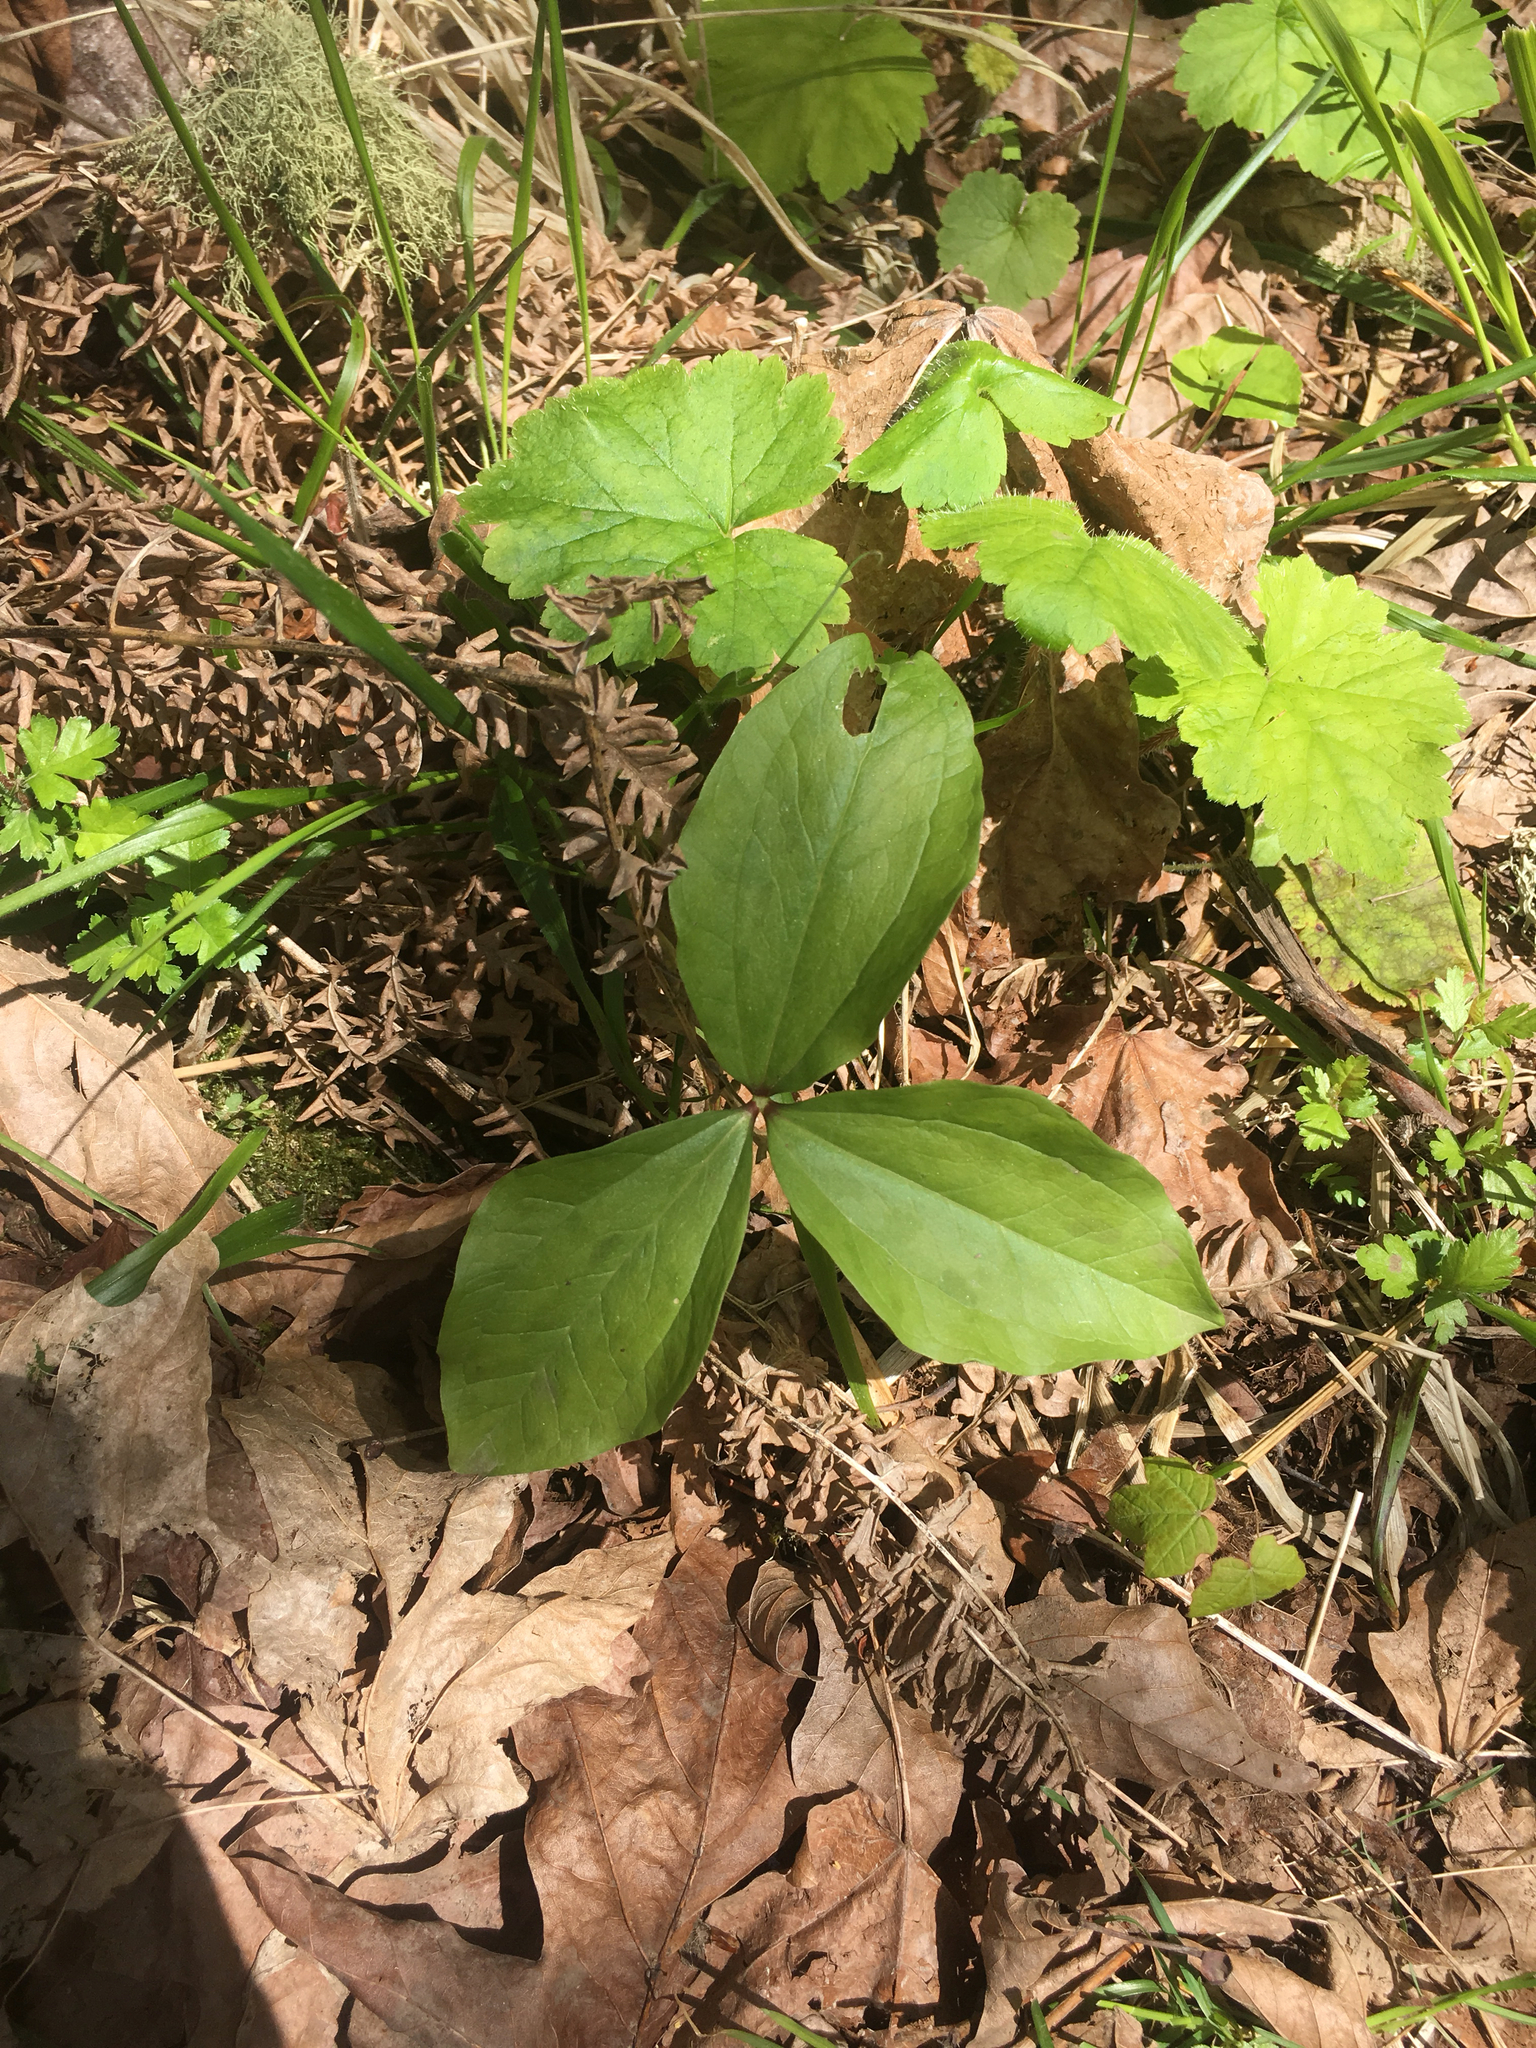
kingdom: Plantae
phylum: Tracheophyta
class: Liliopsida
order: Liliales
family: Melanthiaceae
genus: Trillium
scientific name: Trillium albidum
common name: Freeman's trillium
